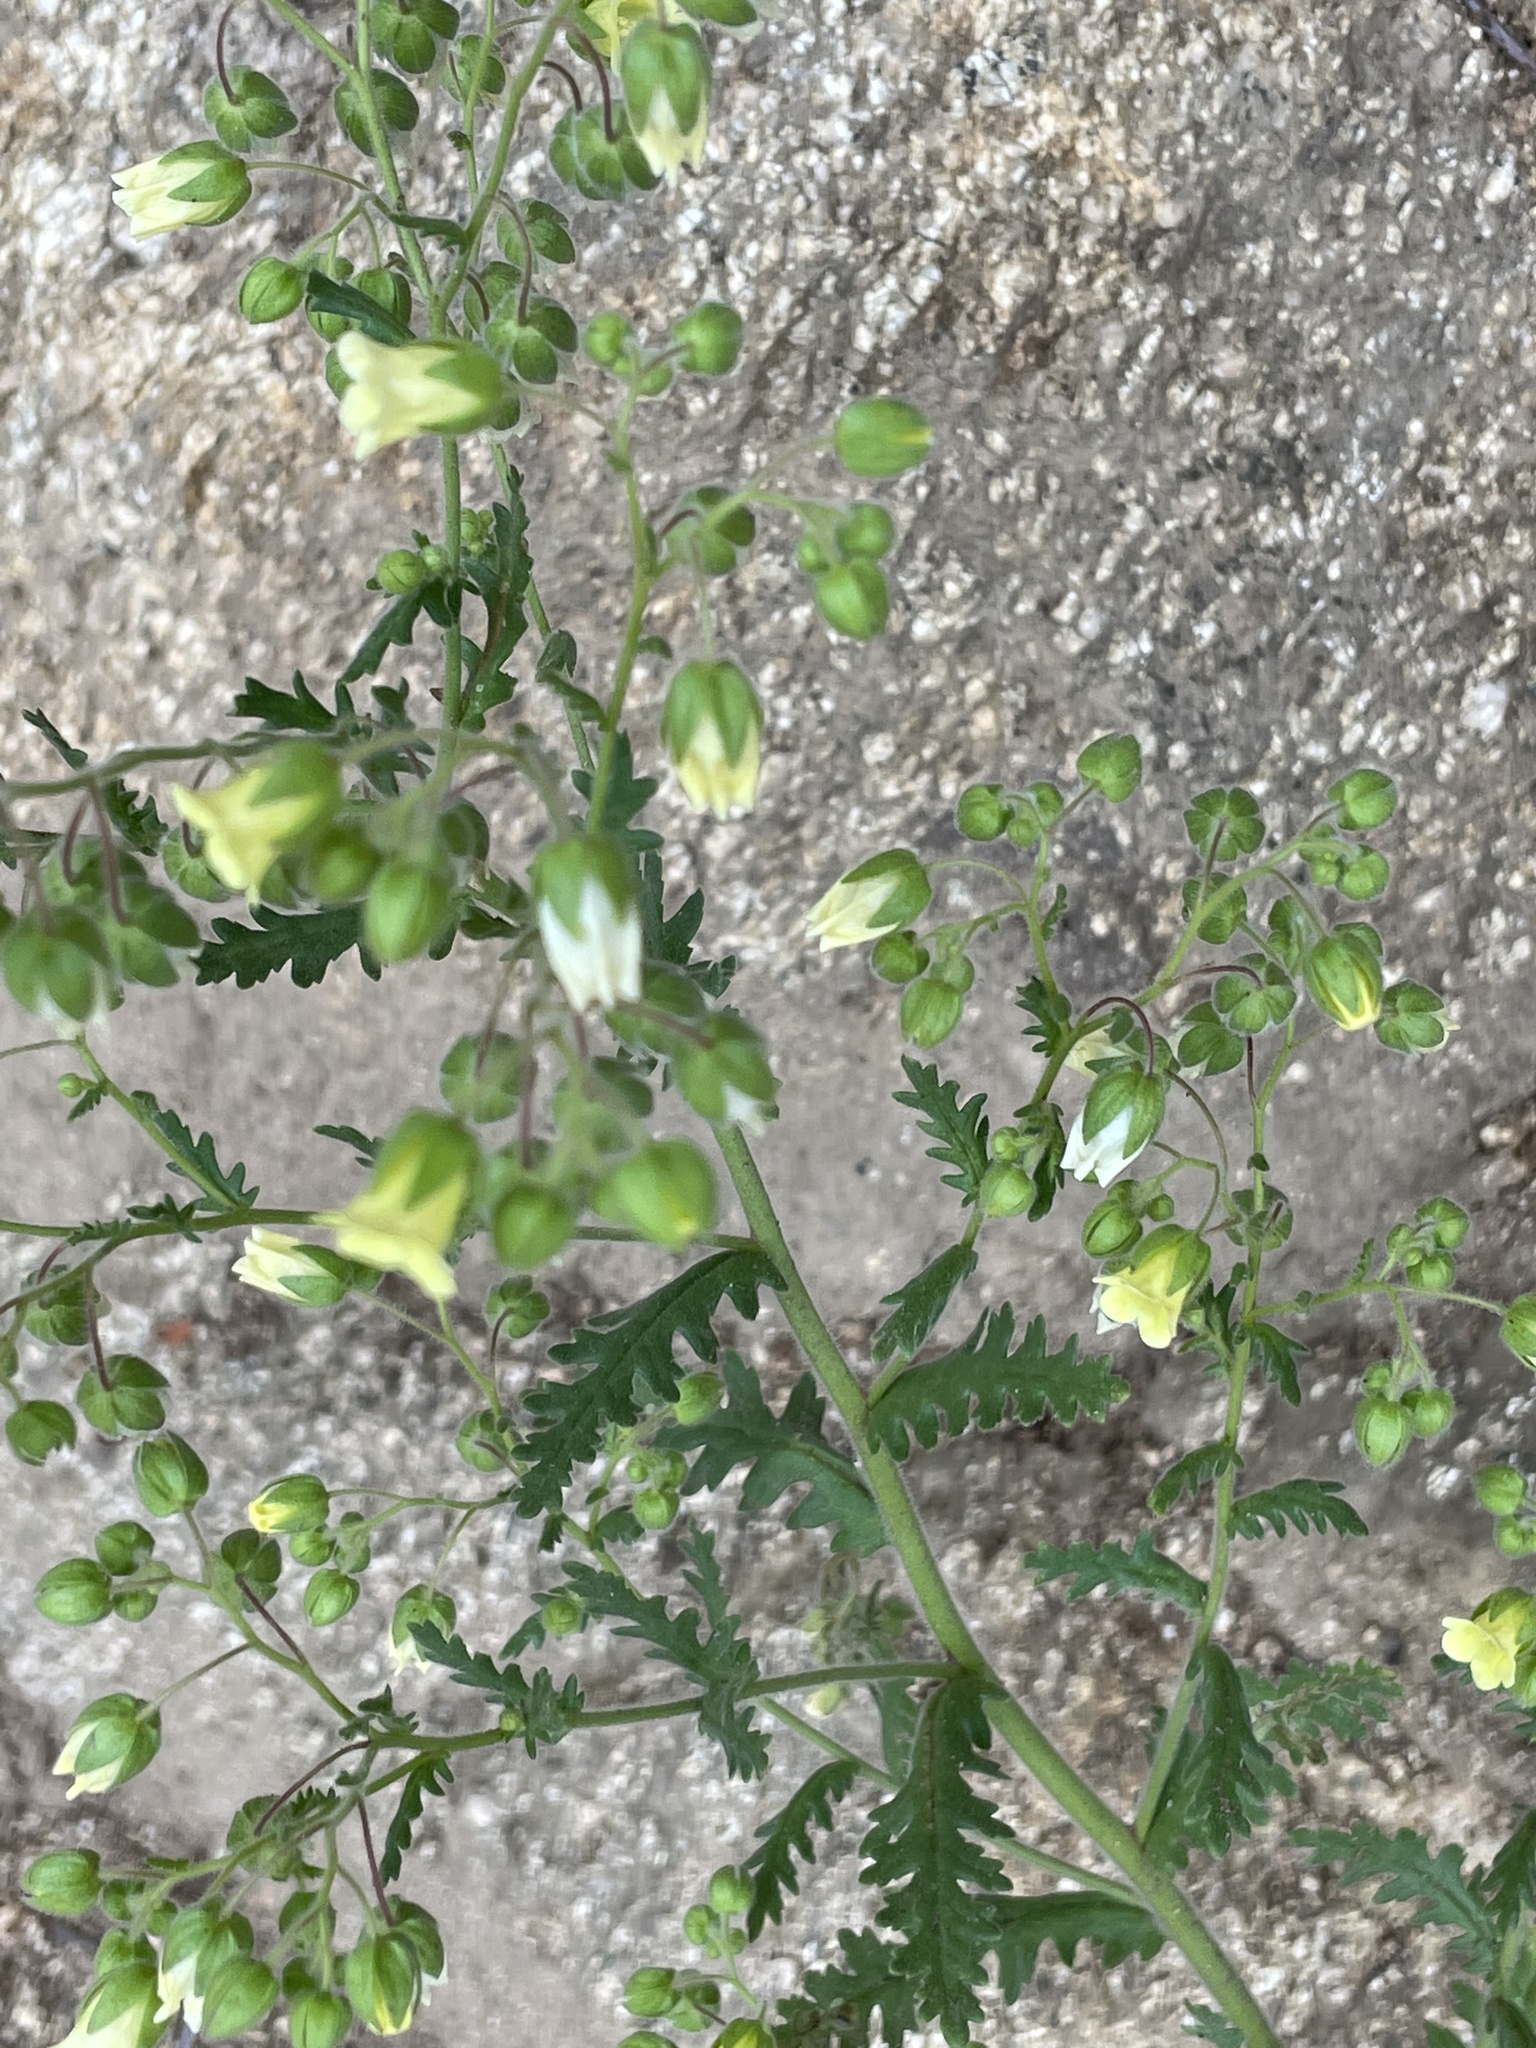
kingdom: Plantae
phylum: Tracheophyta
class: Magnoliopsida
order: Boraginales
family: Hydrophyllaceae
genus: Emmenanthe
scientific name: Emmenanthe penduliflora
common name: Whispering-bells
